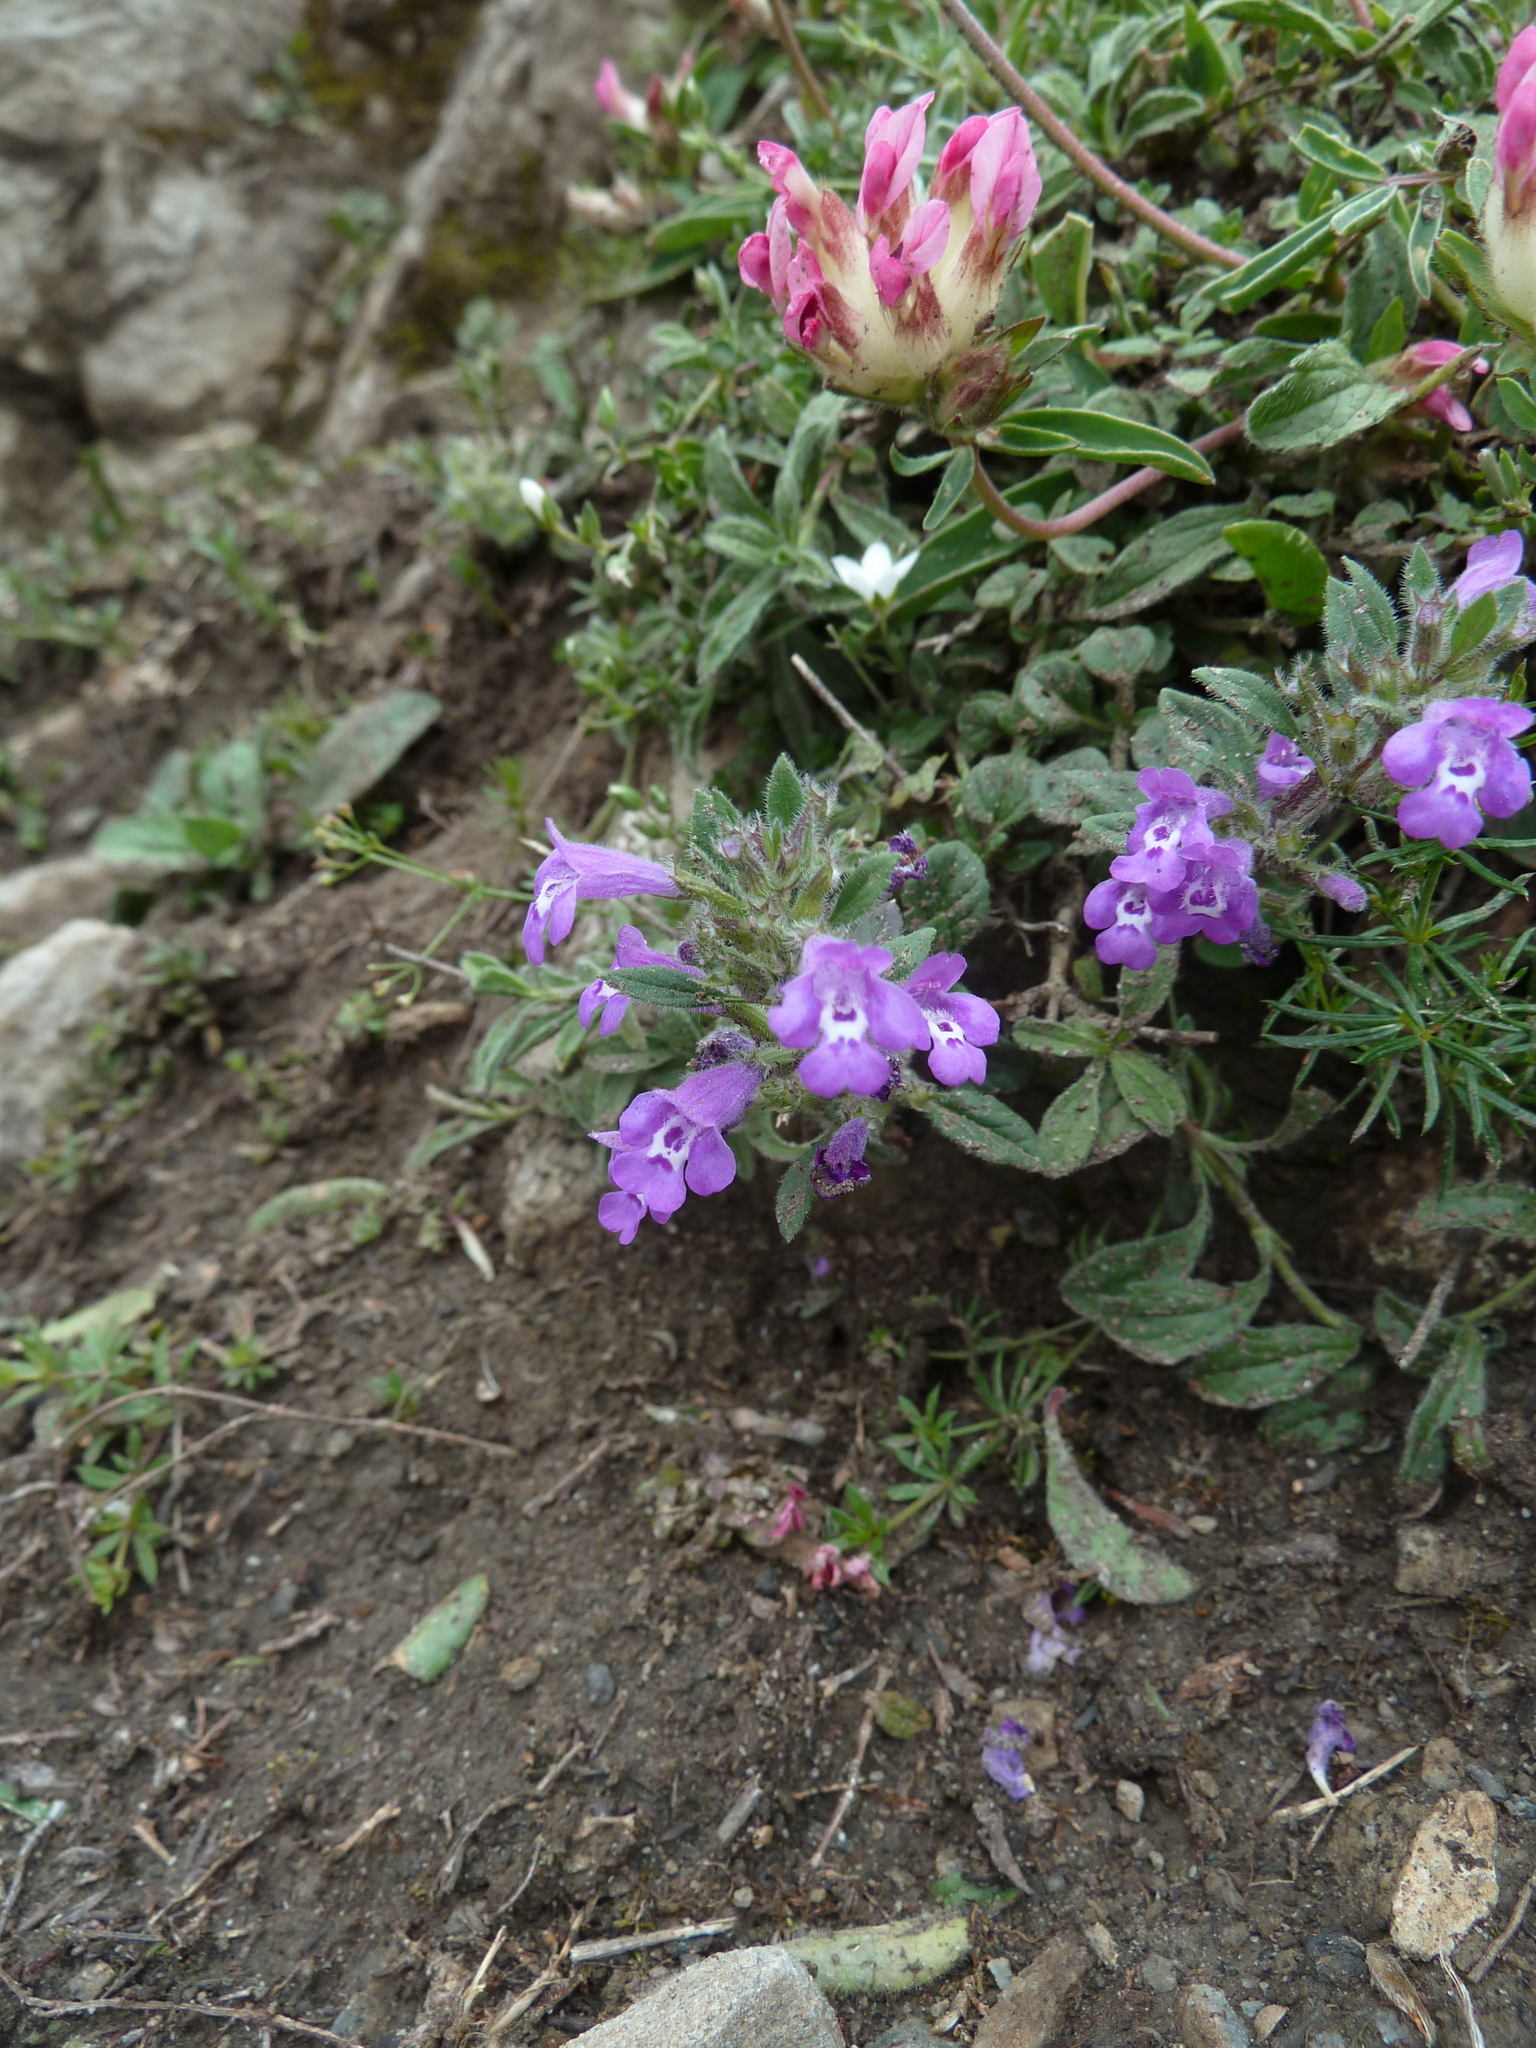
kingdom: Plantae
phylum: Tracheophyta
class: Magnoliopsida
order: Lamiales
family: Lamiaceae
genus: Clinopodium
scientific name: Clinopodium alpinum
